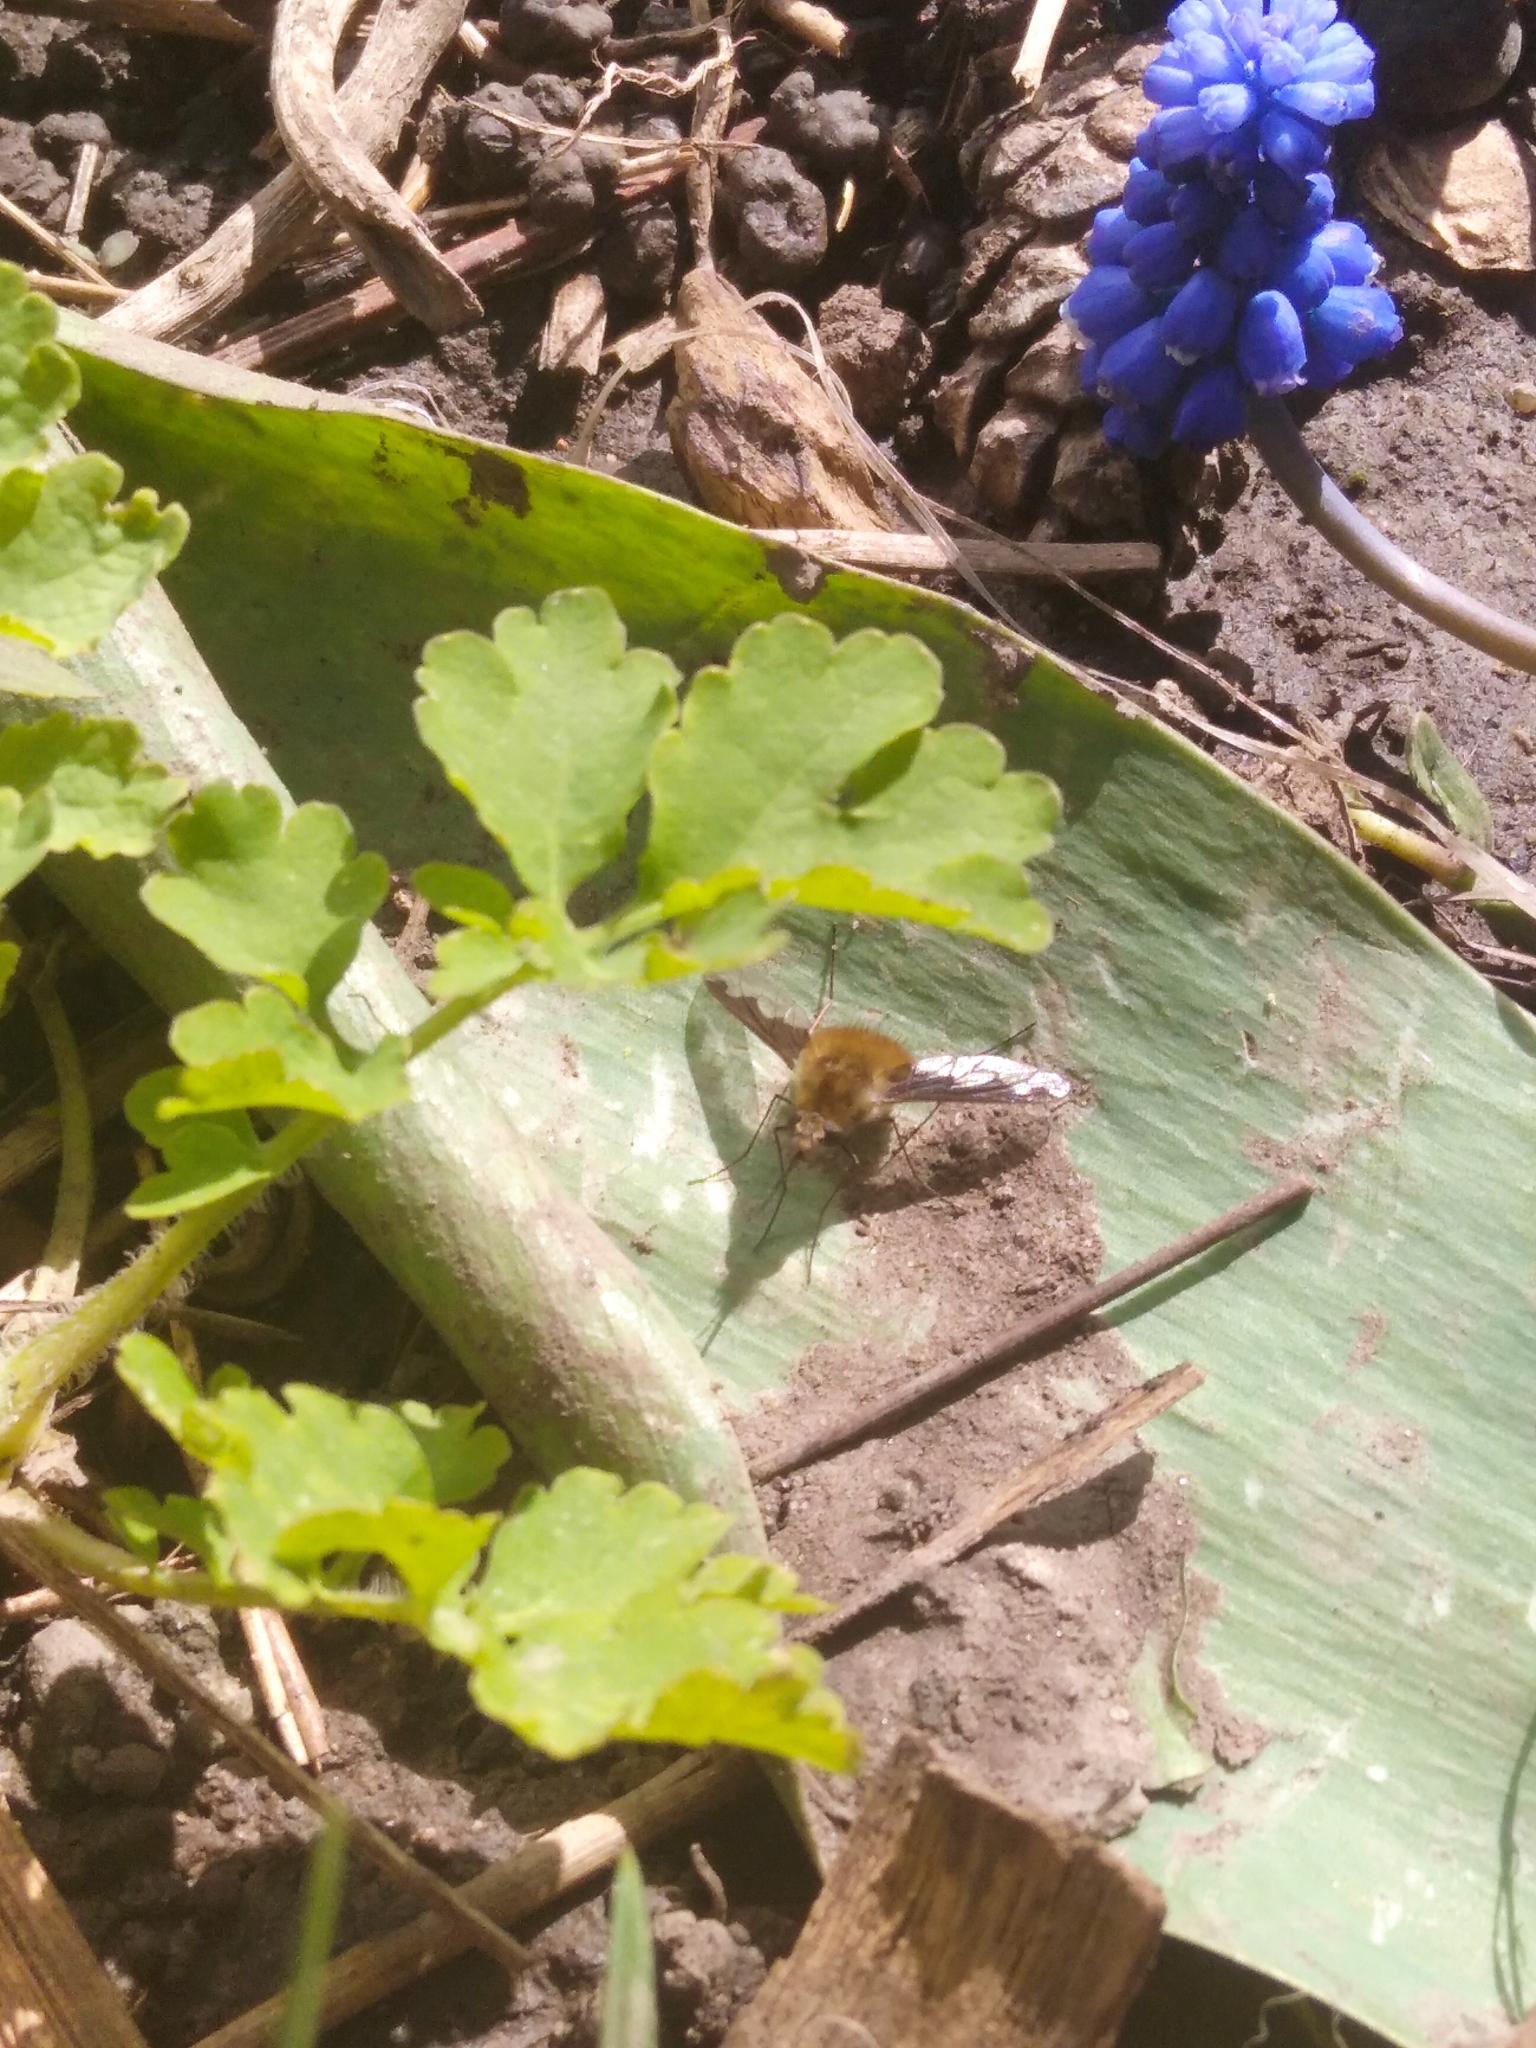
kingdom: Animalia
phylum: Arthropoda
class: Insecta
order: Diptera
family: Bombyliidae
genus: Bombylius
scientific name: Bombylius major
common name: Bee fly
